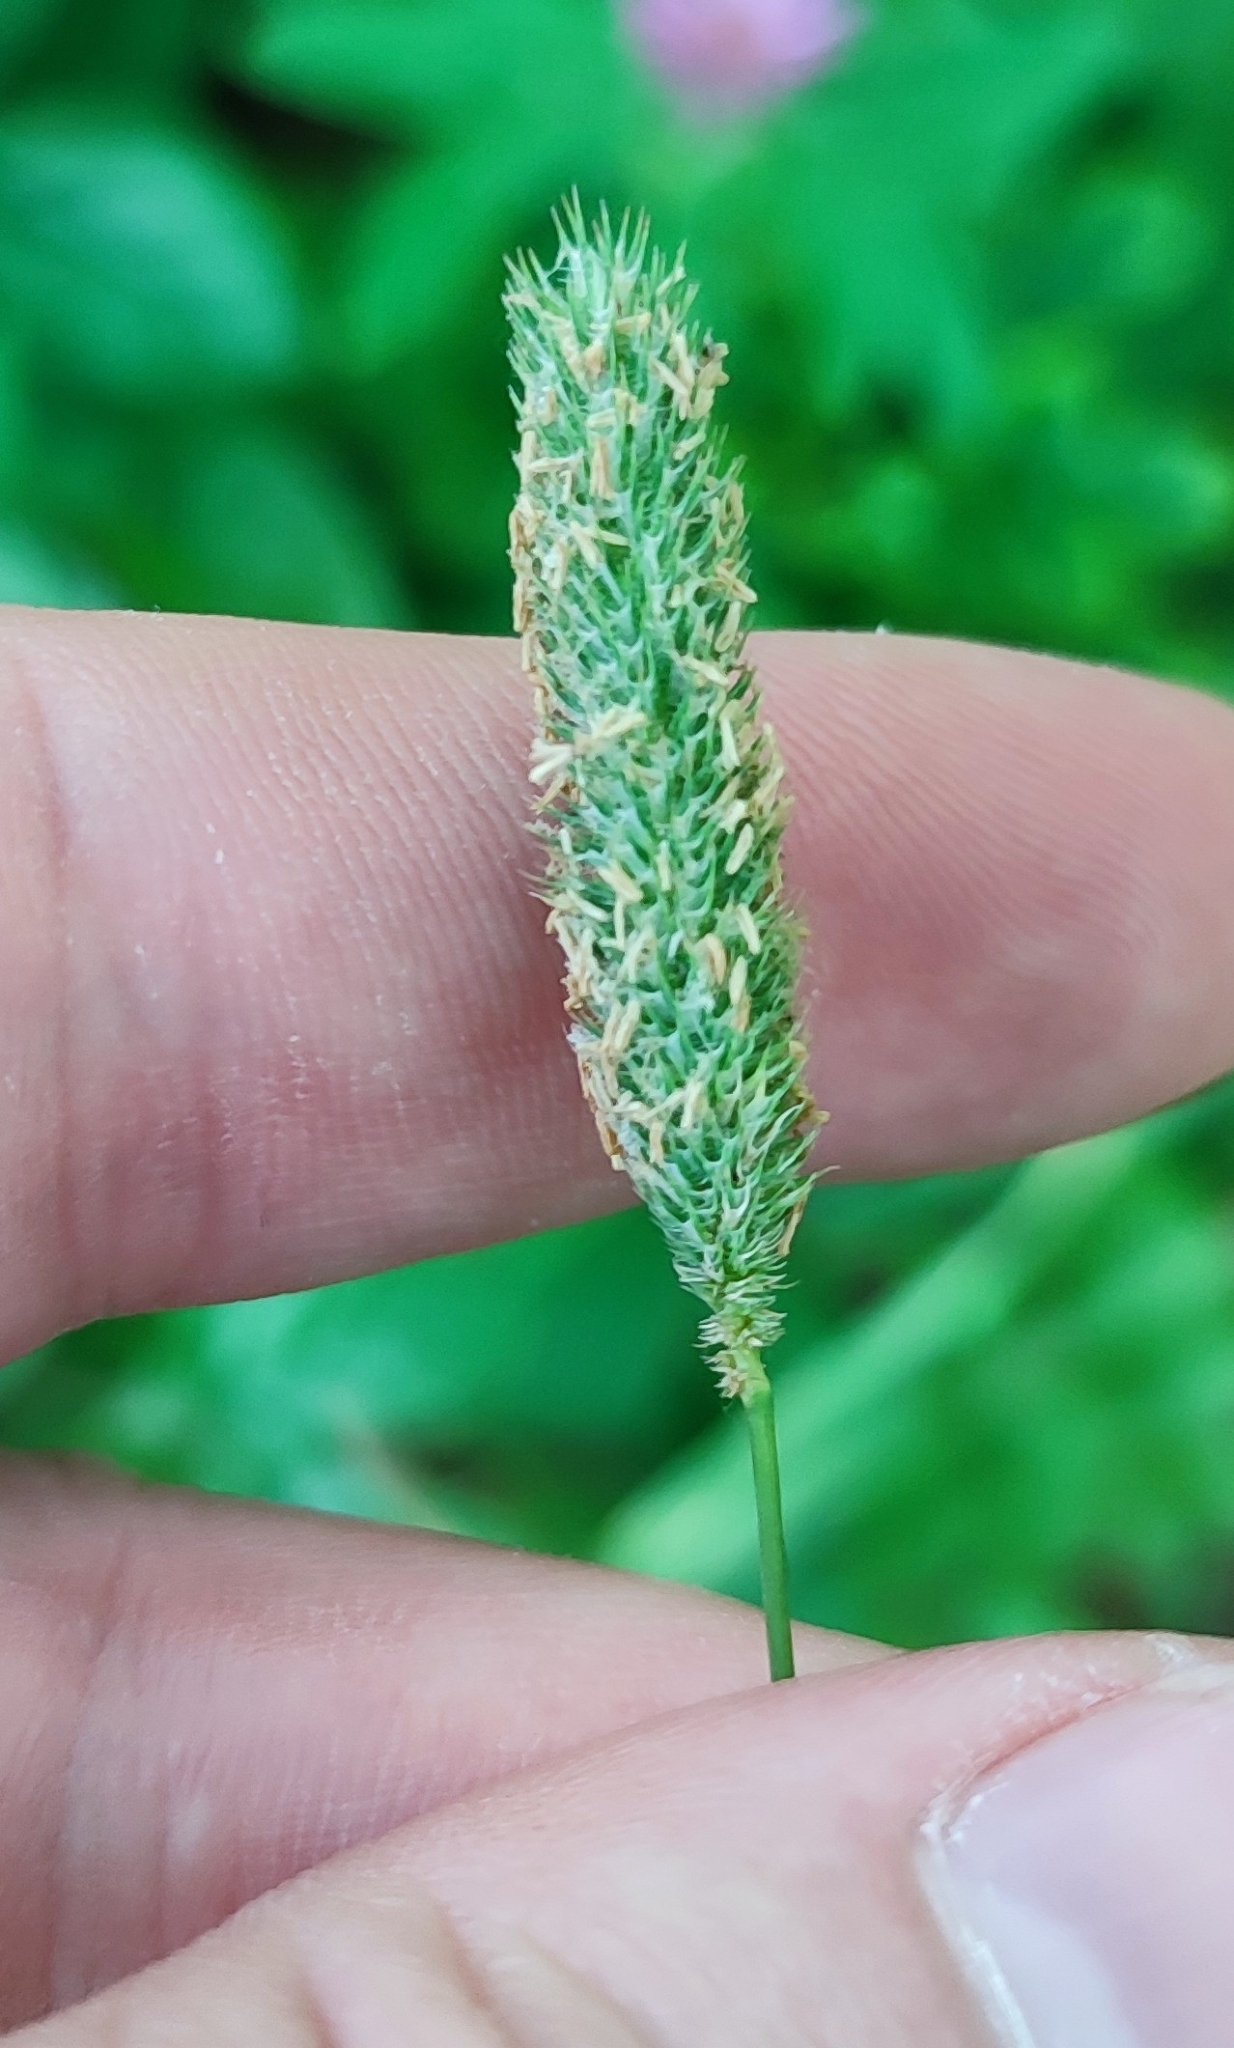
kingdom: Plantae
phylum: Tracheophyta
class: Liliopsida
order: Poales
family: Poaceae
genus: Phleum
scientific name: Phleum pratense
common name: Timothy grass
